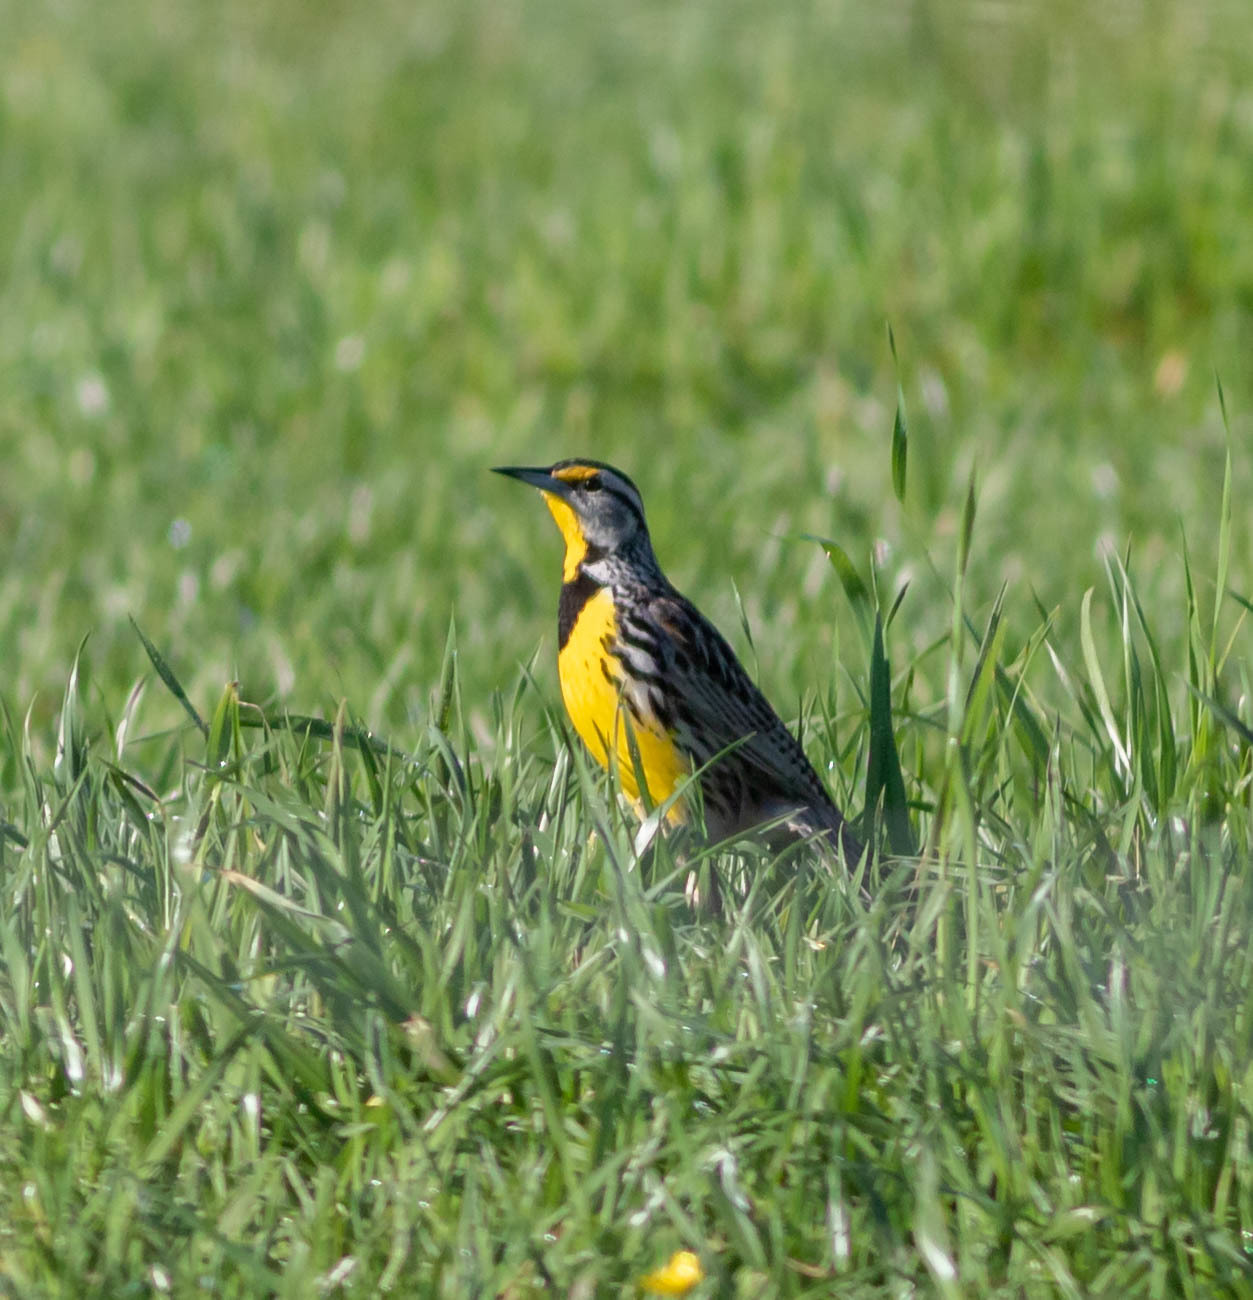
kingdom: Animalia
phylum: Chordata
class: Aves
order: Passeriformes
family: Icteridae
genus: Sturnella
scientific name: Sturnella magna
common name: Eastern meadowlark
